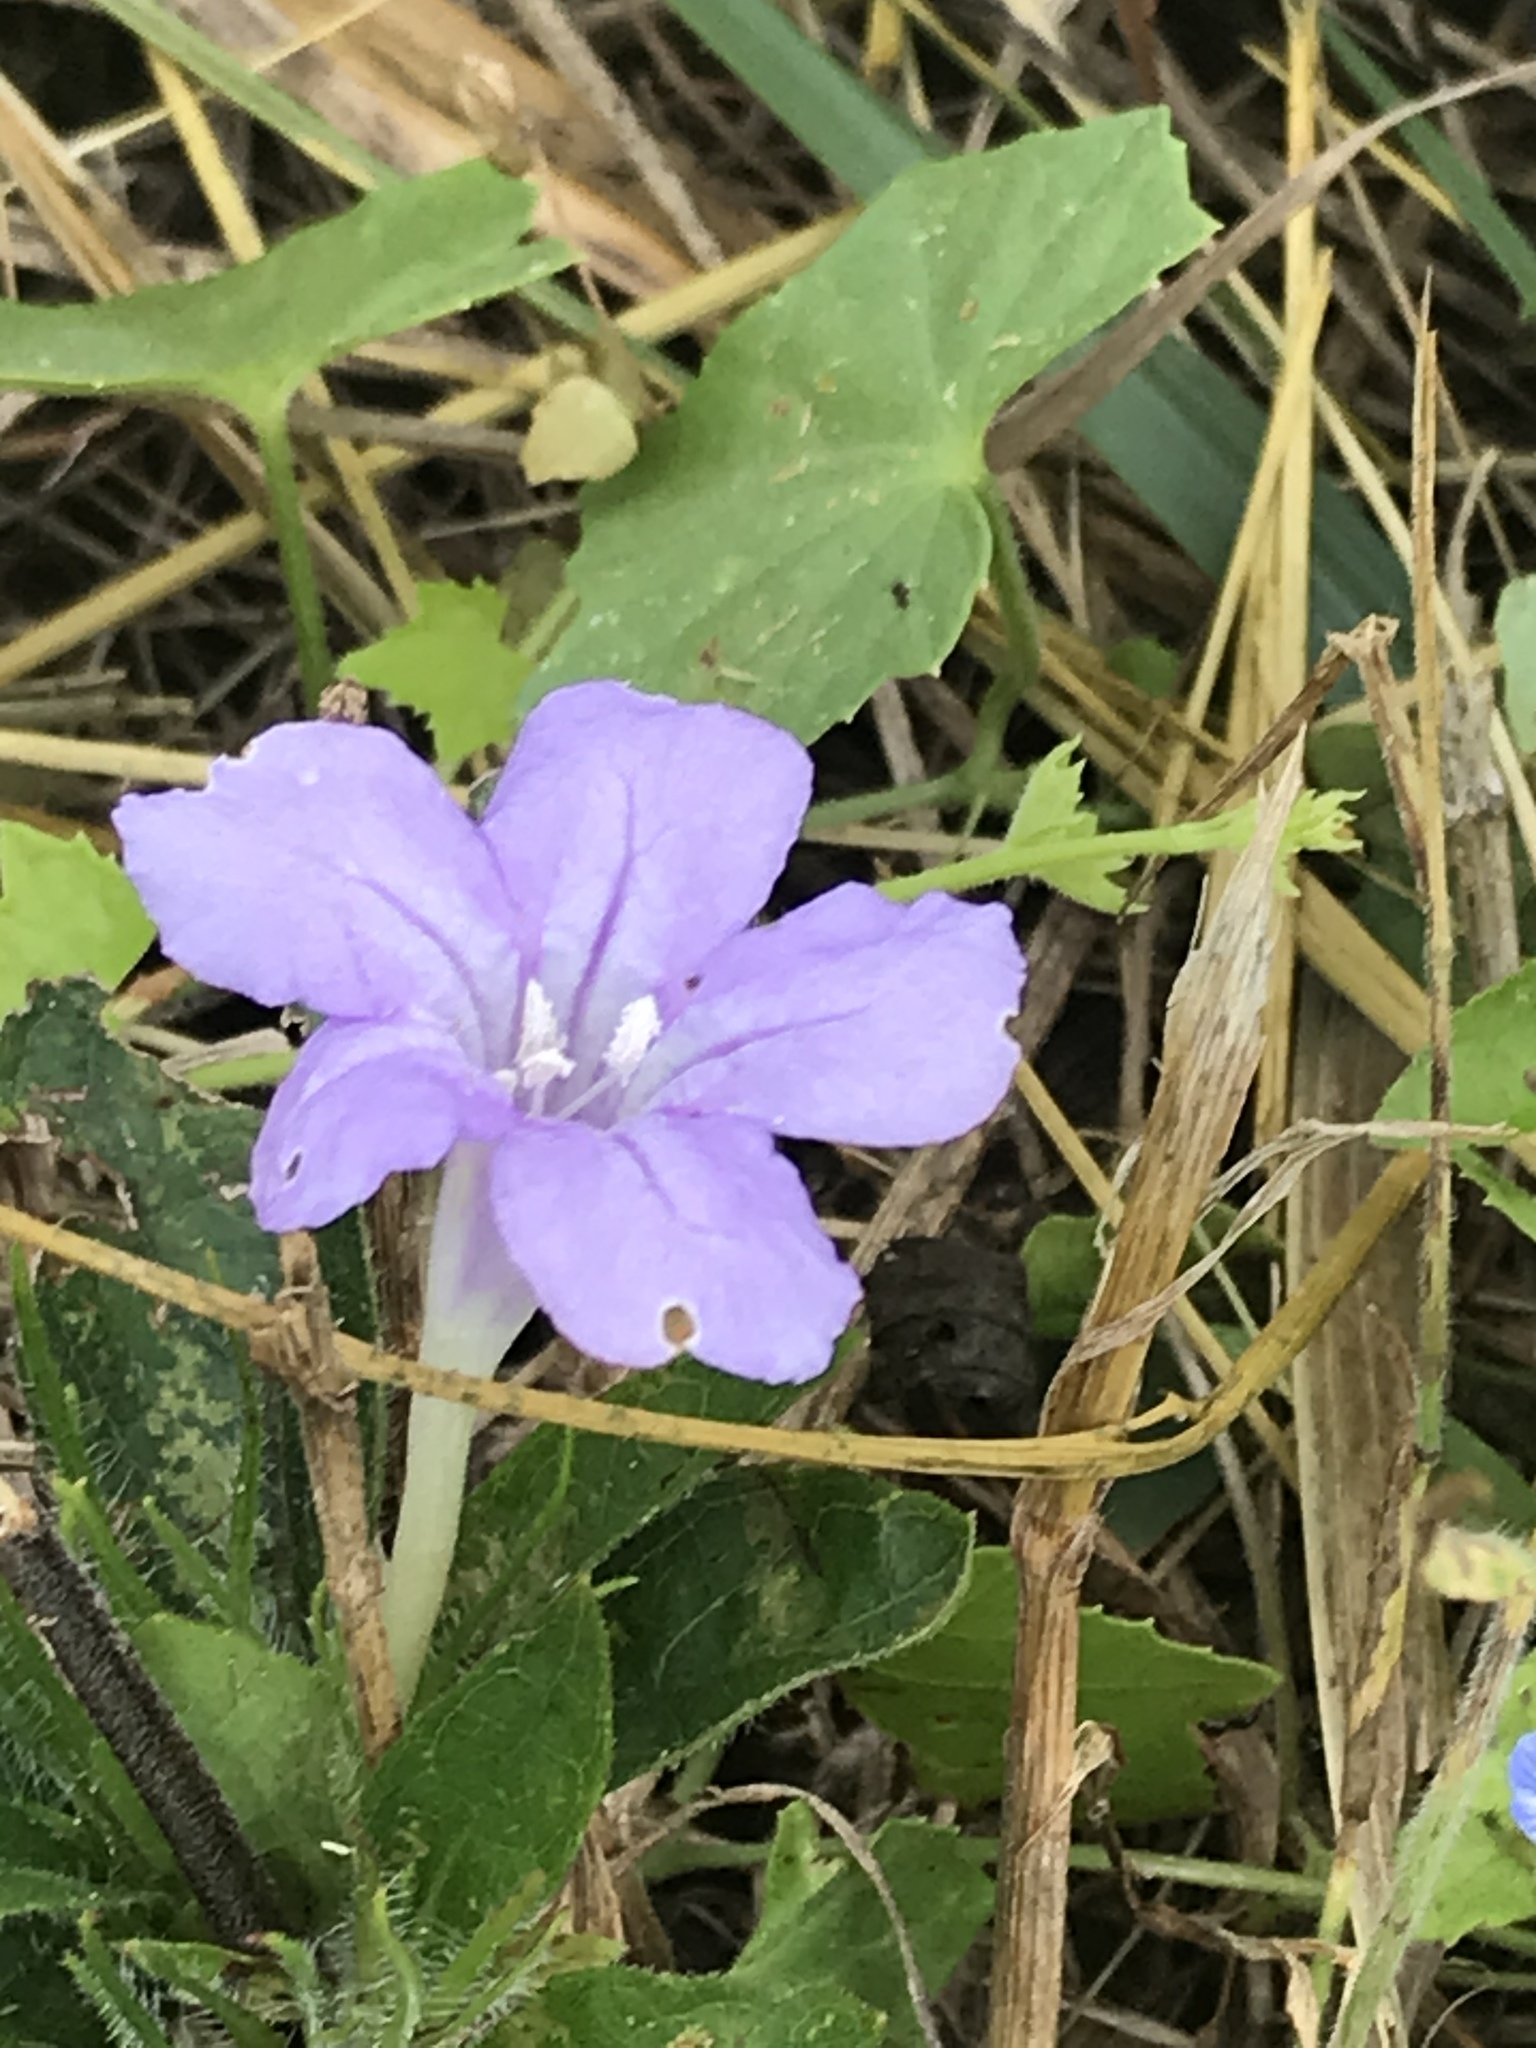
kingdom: Plantae
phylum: Tracheophyta
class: Magnoliopsida
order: Lamiales
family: Acanthaceae
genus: Ruellia
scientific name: Ruellia caroliniensis
